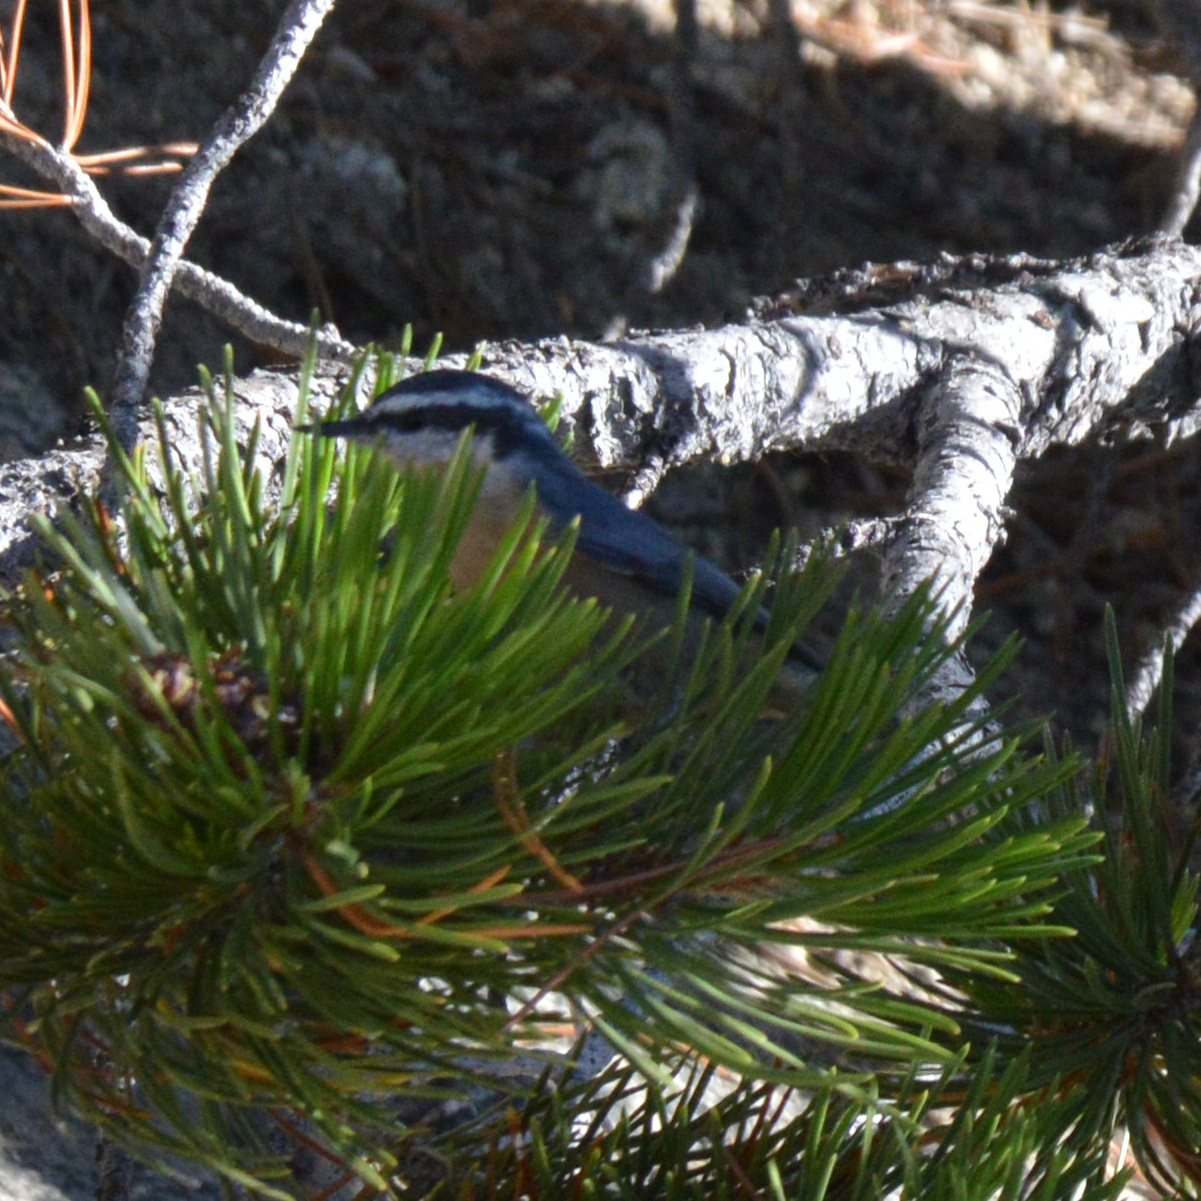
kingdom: Animalia
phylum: Chordata
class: Aves
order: Passeriformes
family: Sittidae
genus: Sitta
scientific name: Sitta canadensis
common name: Red-breasted nuthatch
